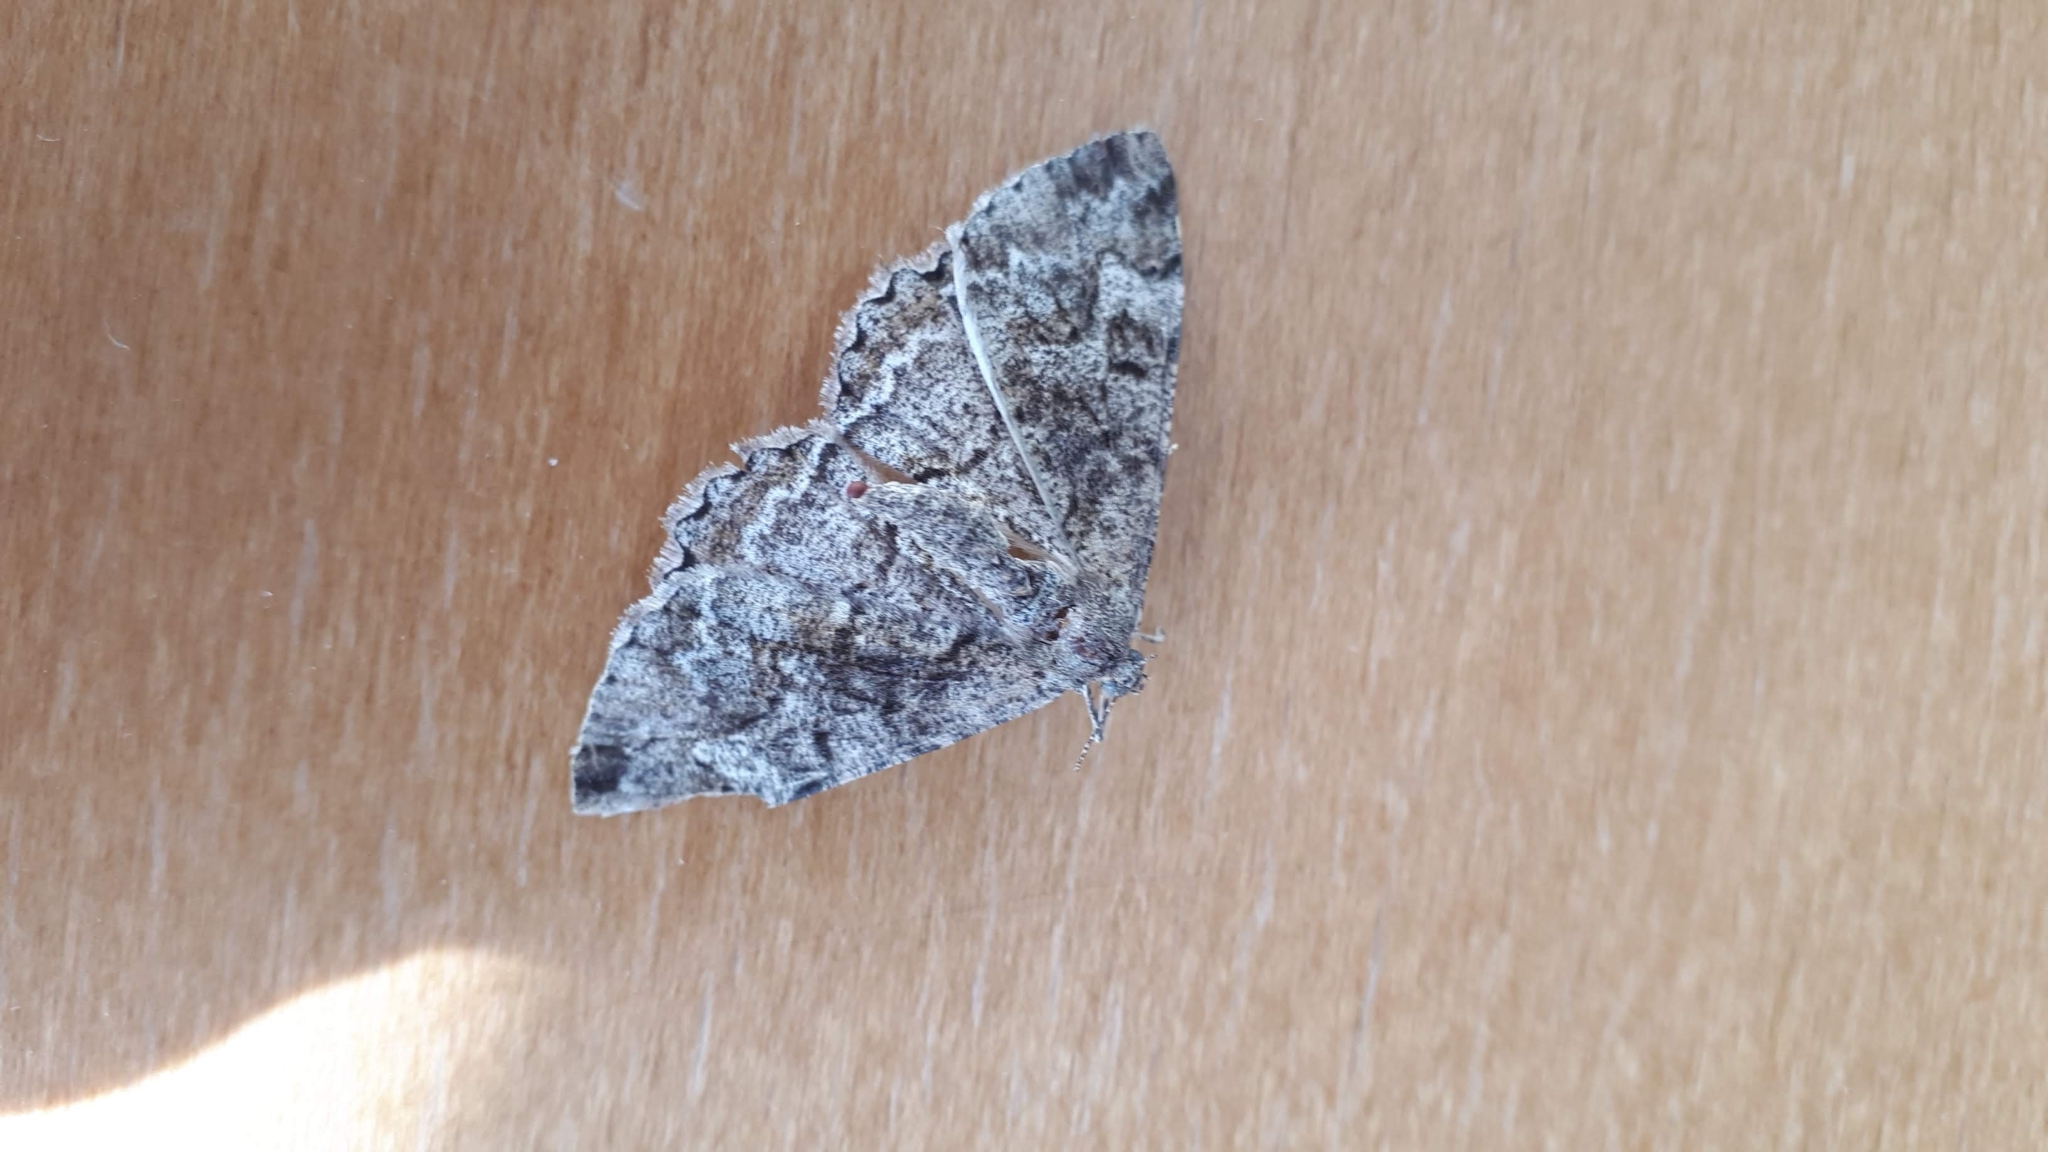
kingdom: Animalia
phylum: Arthropoda
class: Insecta
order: Lepidoptera
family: Geometridae
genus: Alcis
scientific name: Alcis repandata
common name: Mottled beauty
